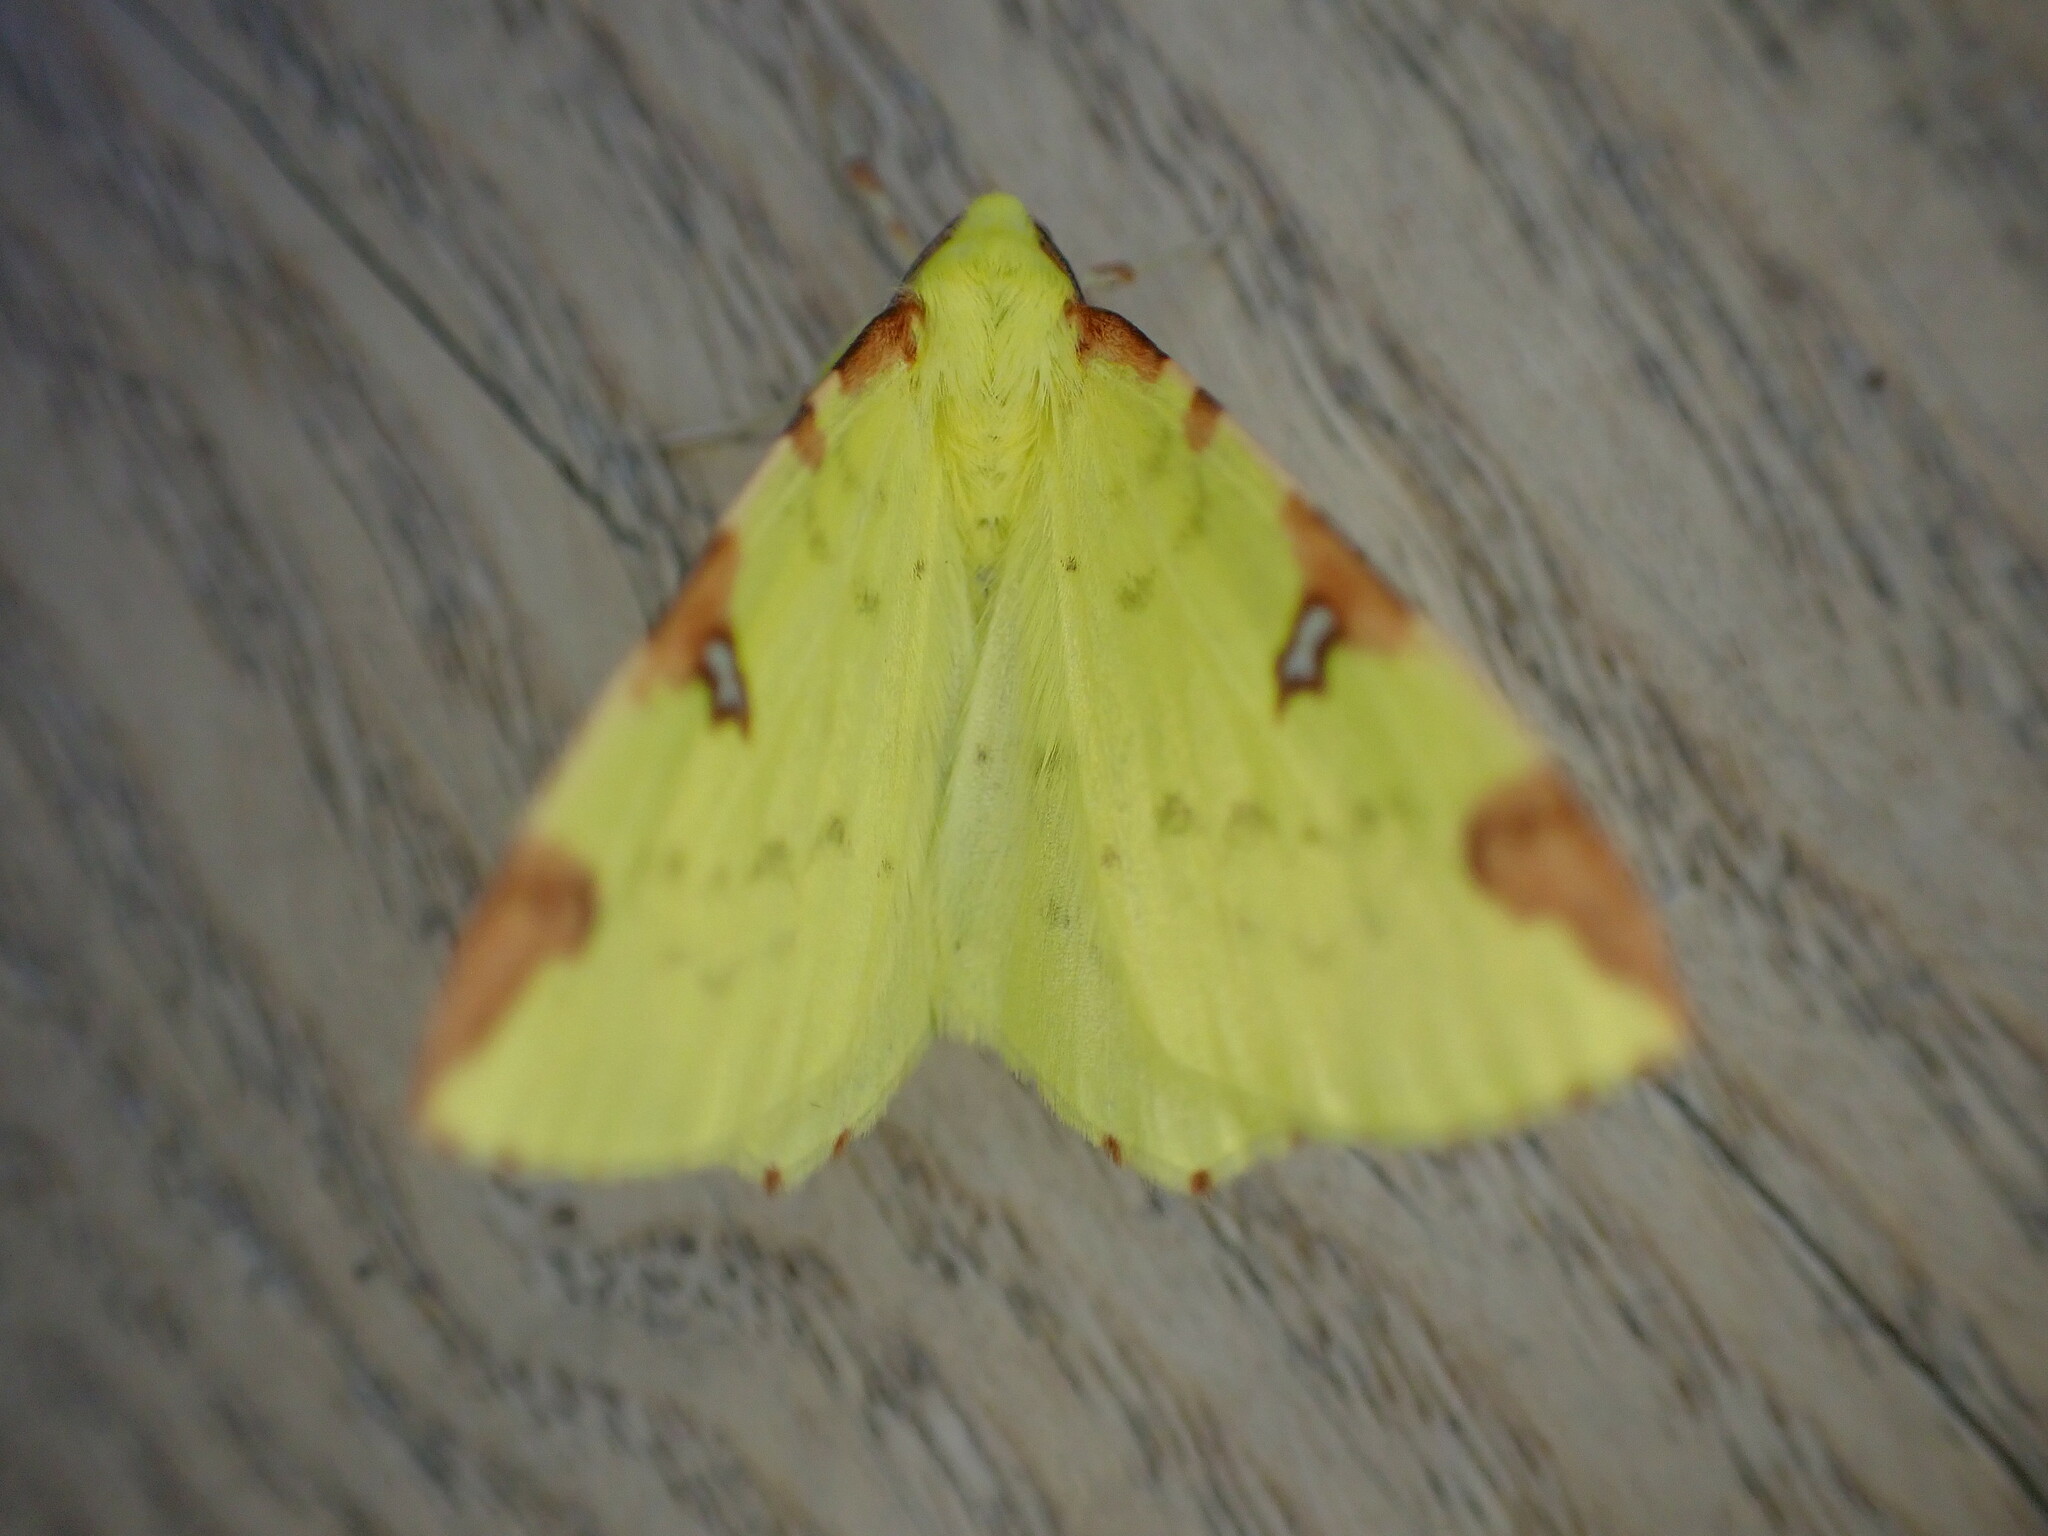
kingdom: Animalia
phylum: Arthropoda
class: Insecta
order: Lepidoptera
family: Geometridae
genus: Opisthograptis
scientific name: Opisthograptis luteolata
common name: Brimstone moth
